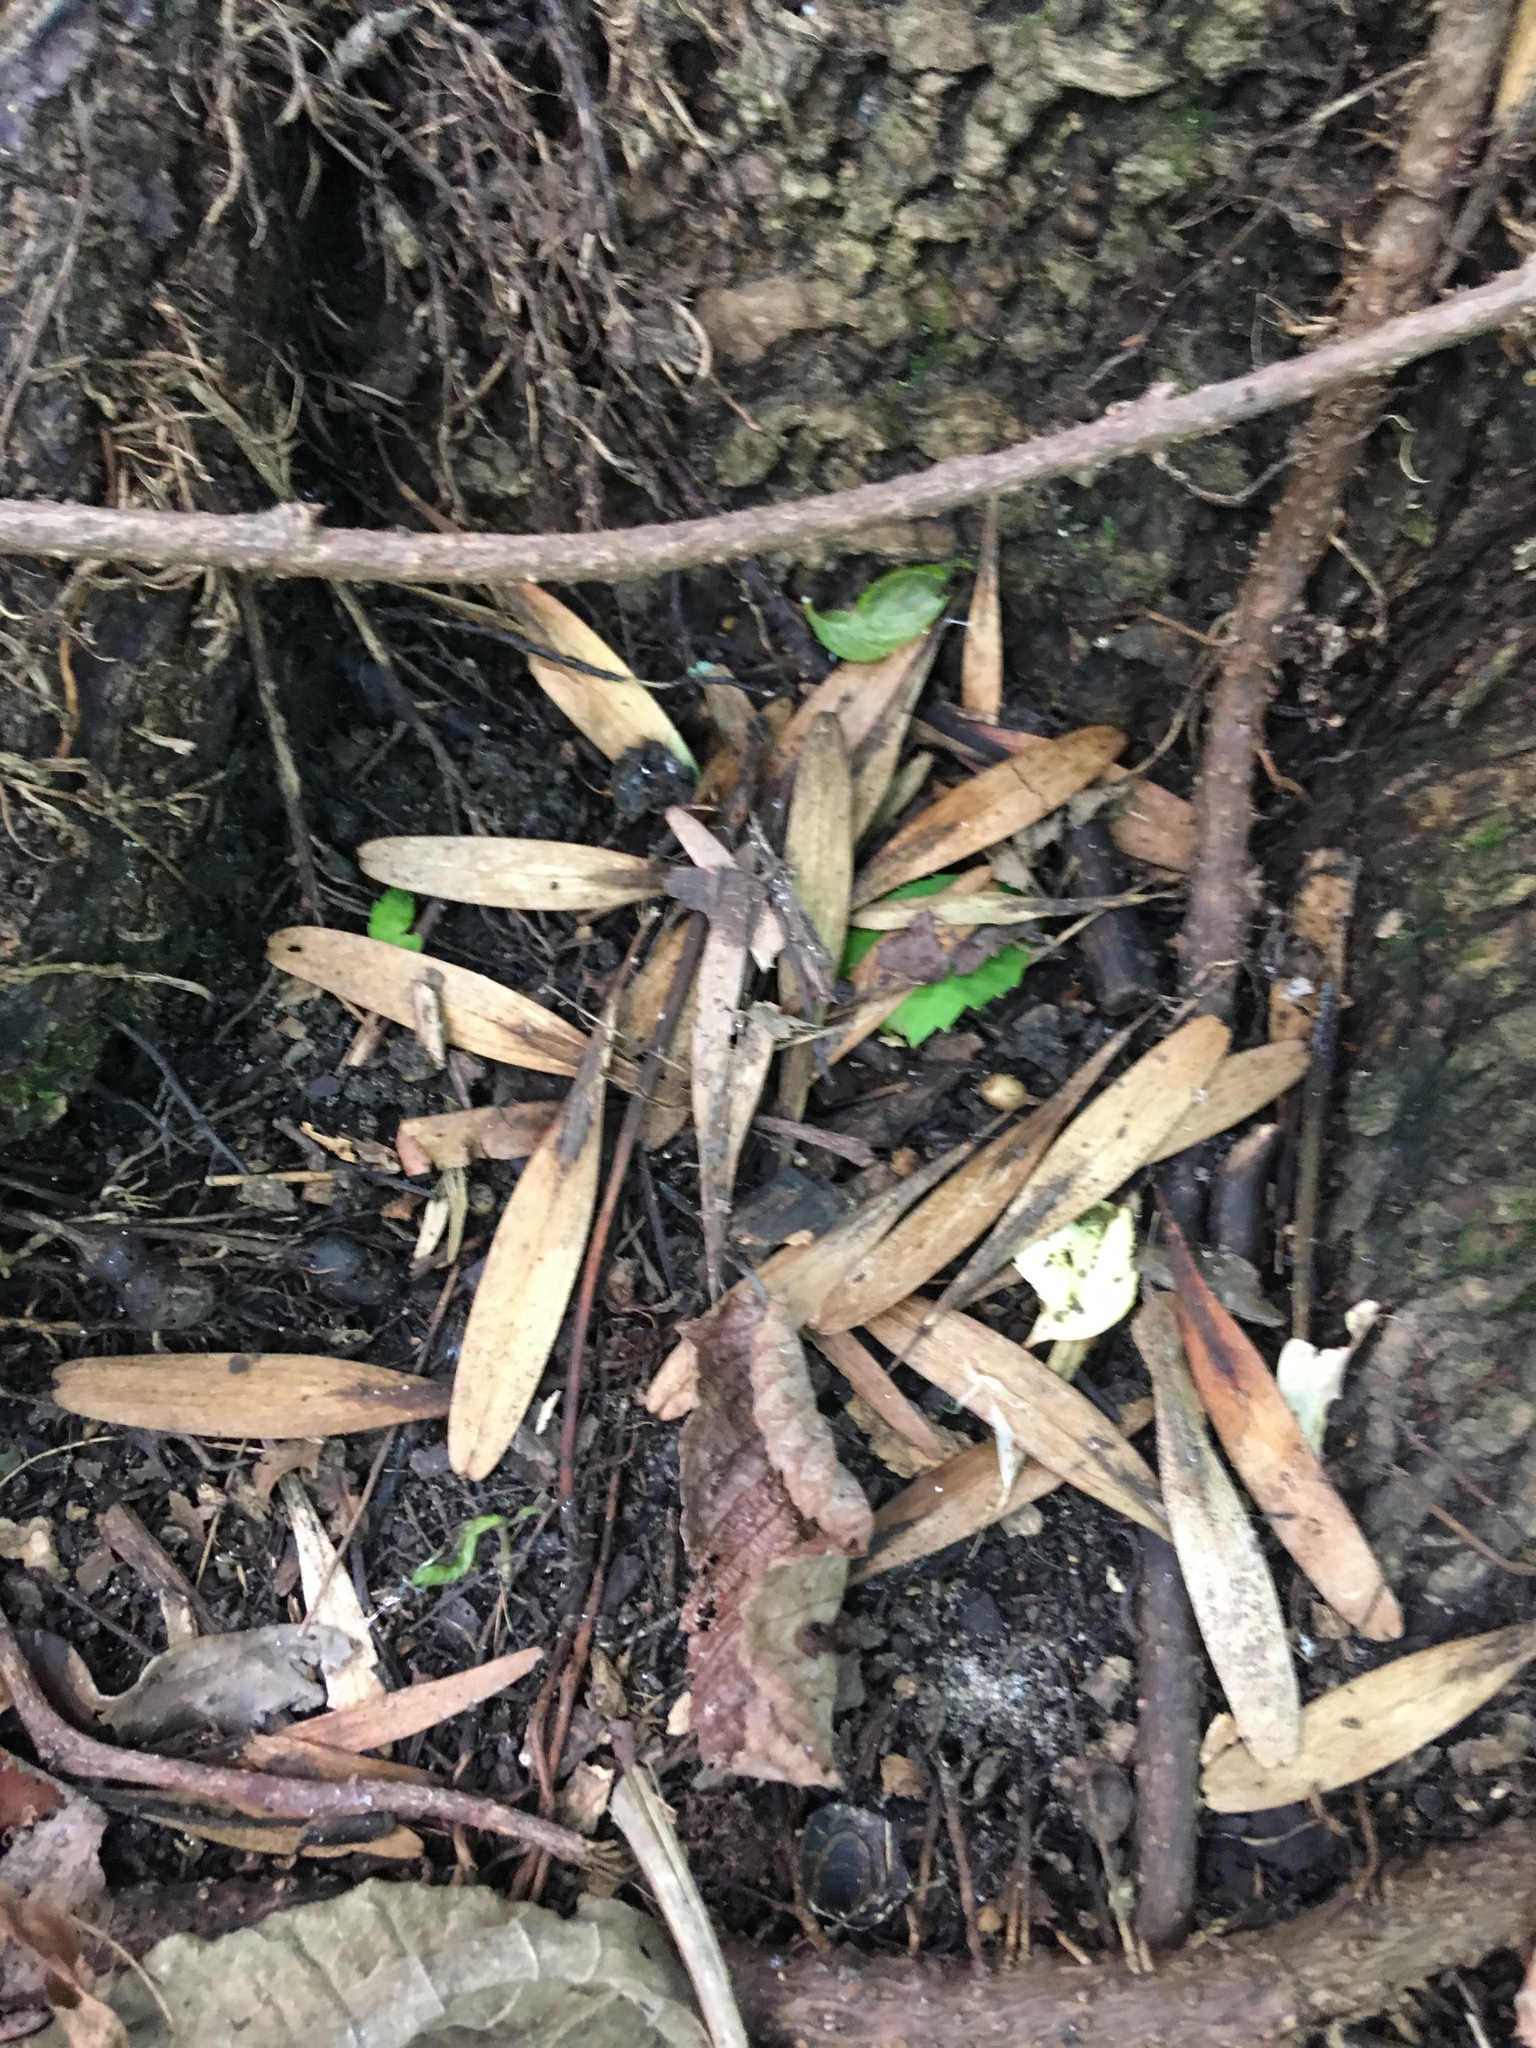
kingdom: Plantae
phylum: Tracheophyta
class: Magnoliopsida
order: Lamiales
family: Oleaceae
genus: Fraxinus
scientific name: Fraxinus profunda
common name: Pumpkin ash
